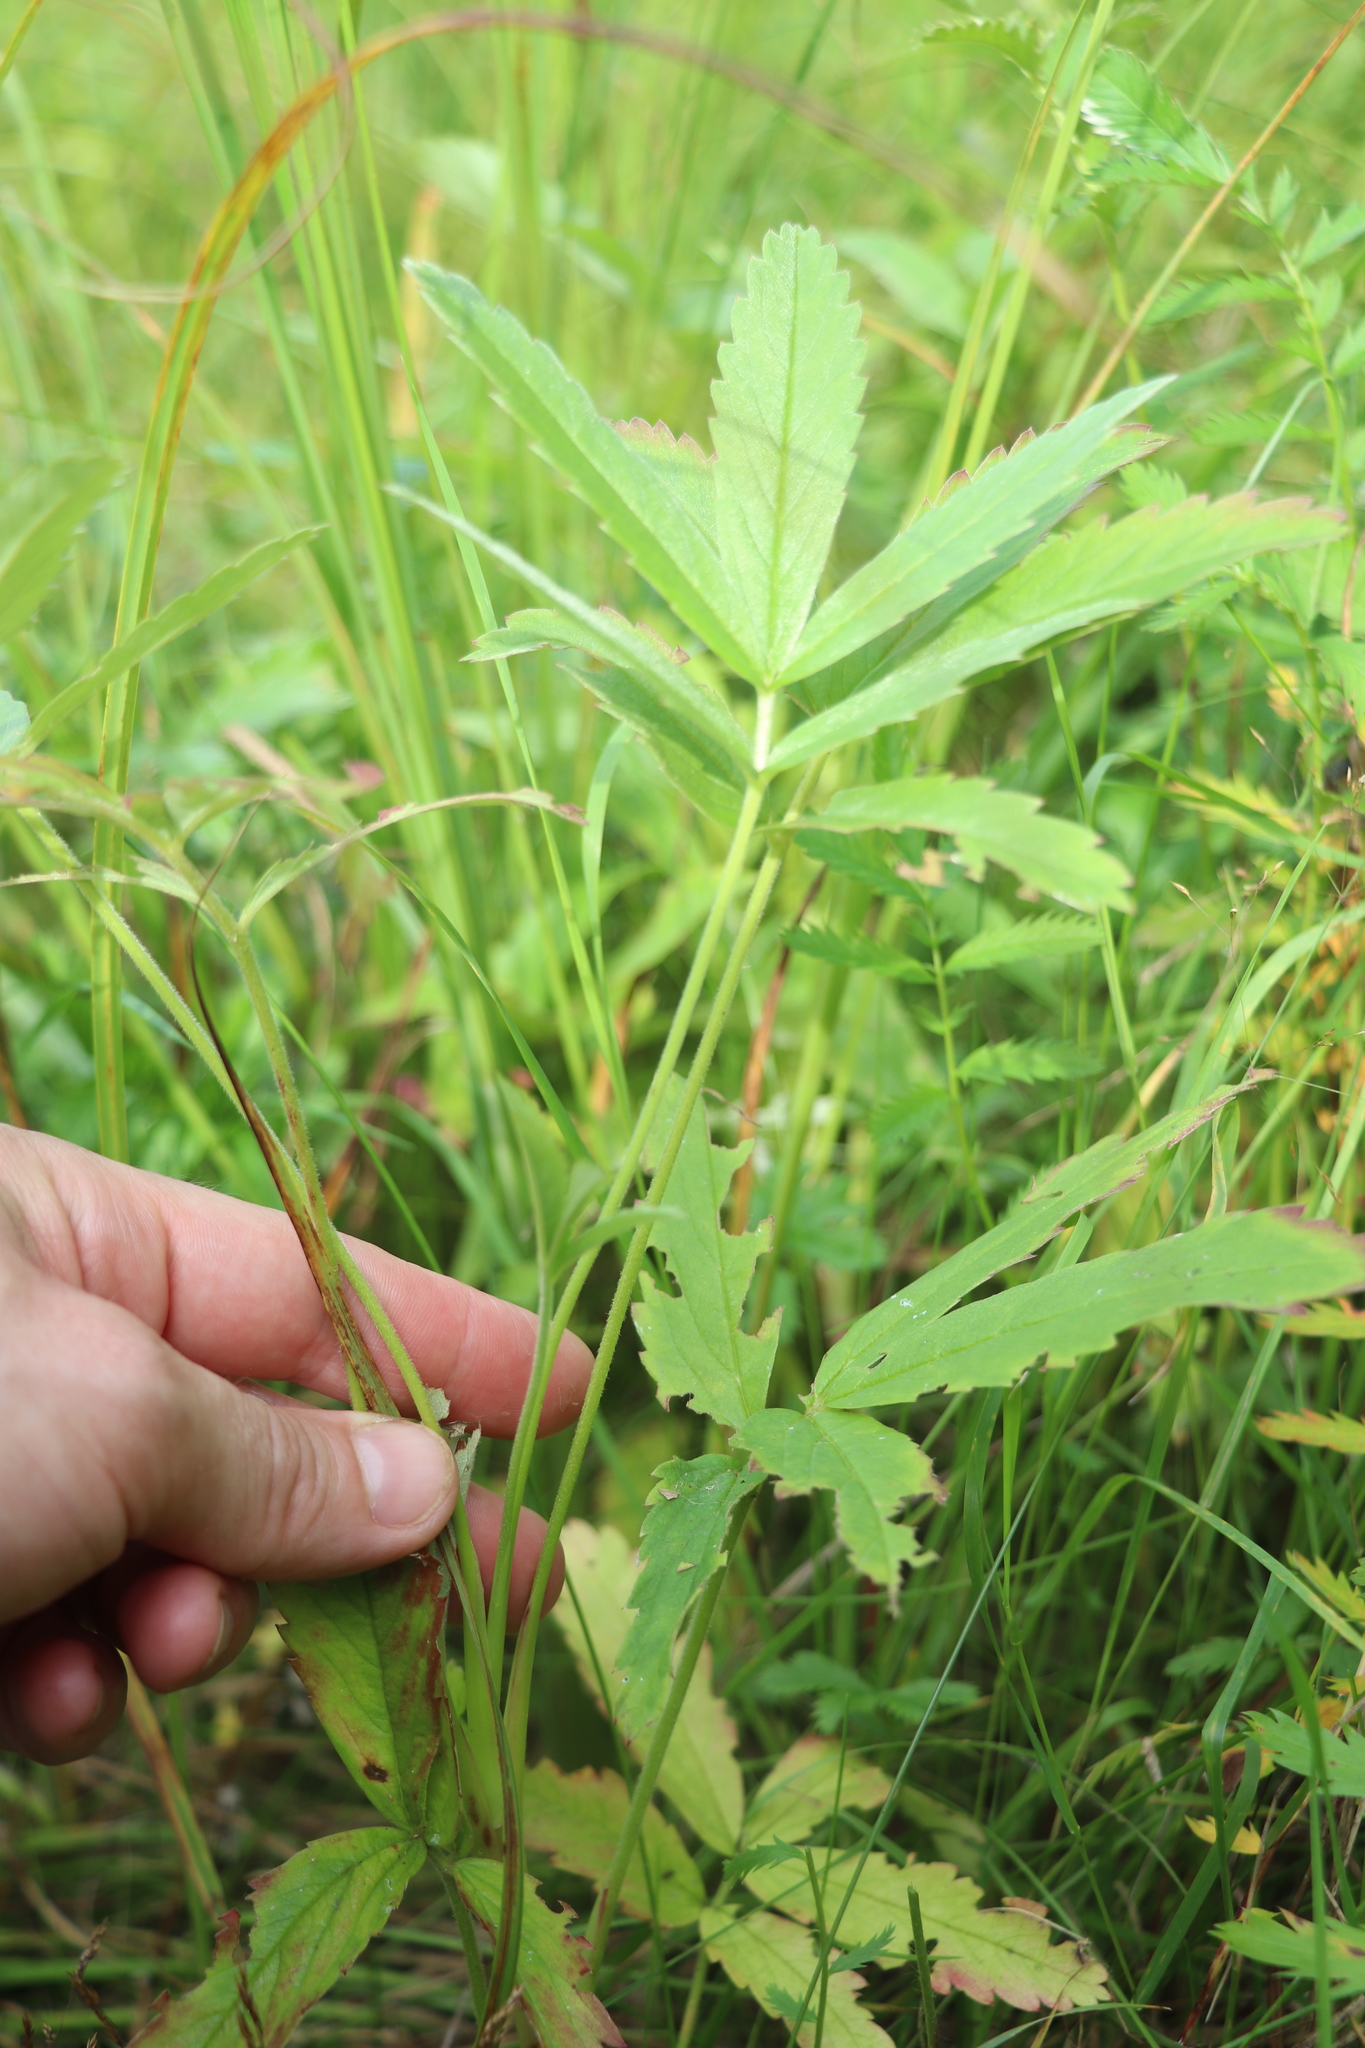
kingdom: Plantae
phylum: Tracheophyta
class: Magnoliopsida
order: Rosales
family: Rosaceae
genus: Comarum
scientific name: Comarum palustre
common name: Marsh cinquefoil
